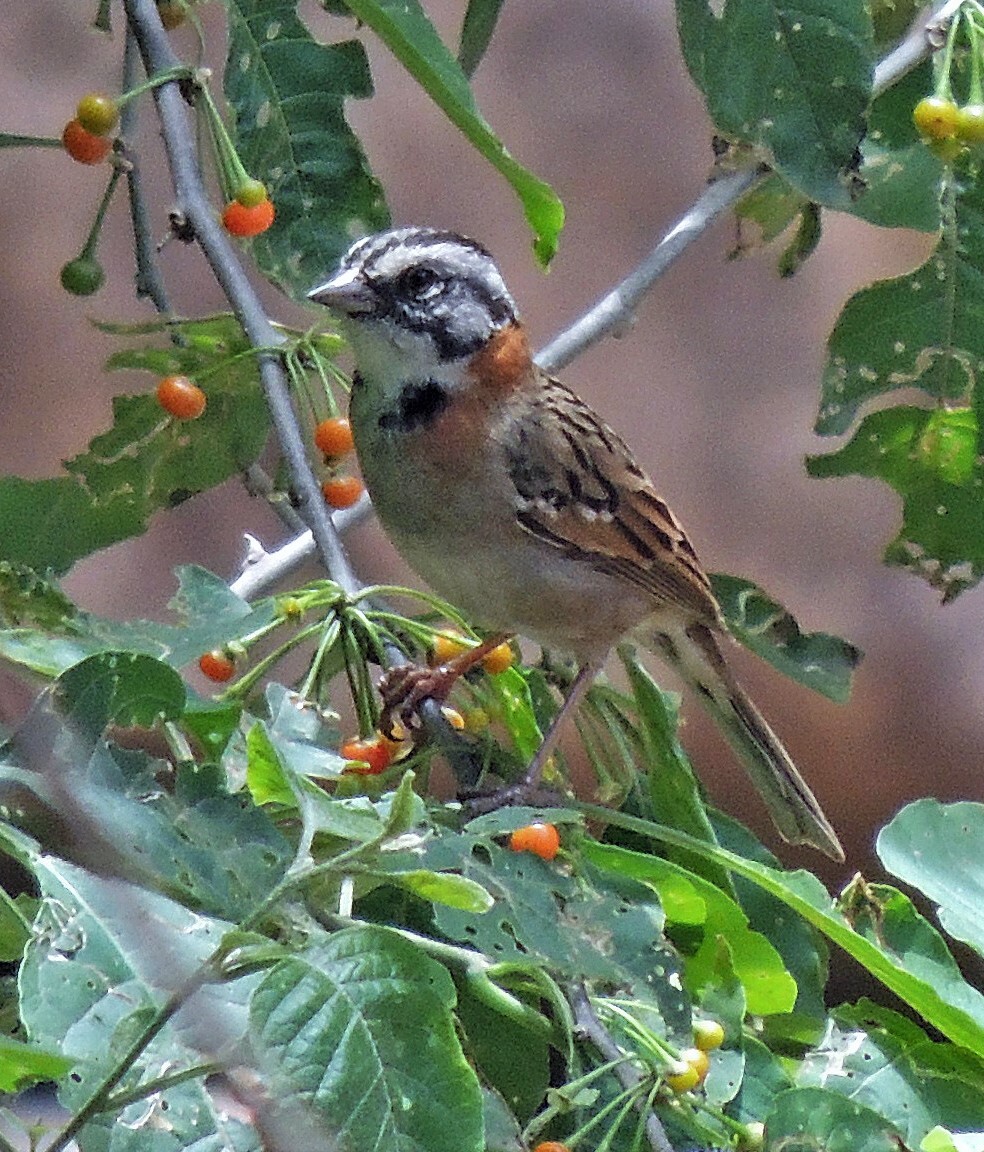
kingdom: Animalia
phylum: Chordata
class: Aves
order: Passeriformes
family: Passerellidae
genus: Zonotrichia
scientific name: Zonotrichia capensis
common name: Rufous-collared sparrow
